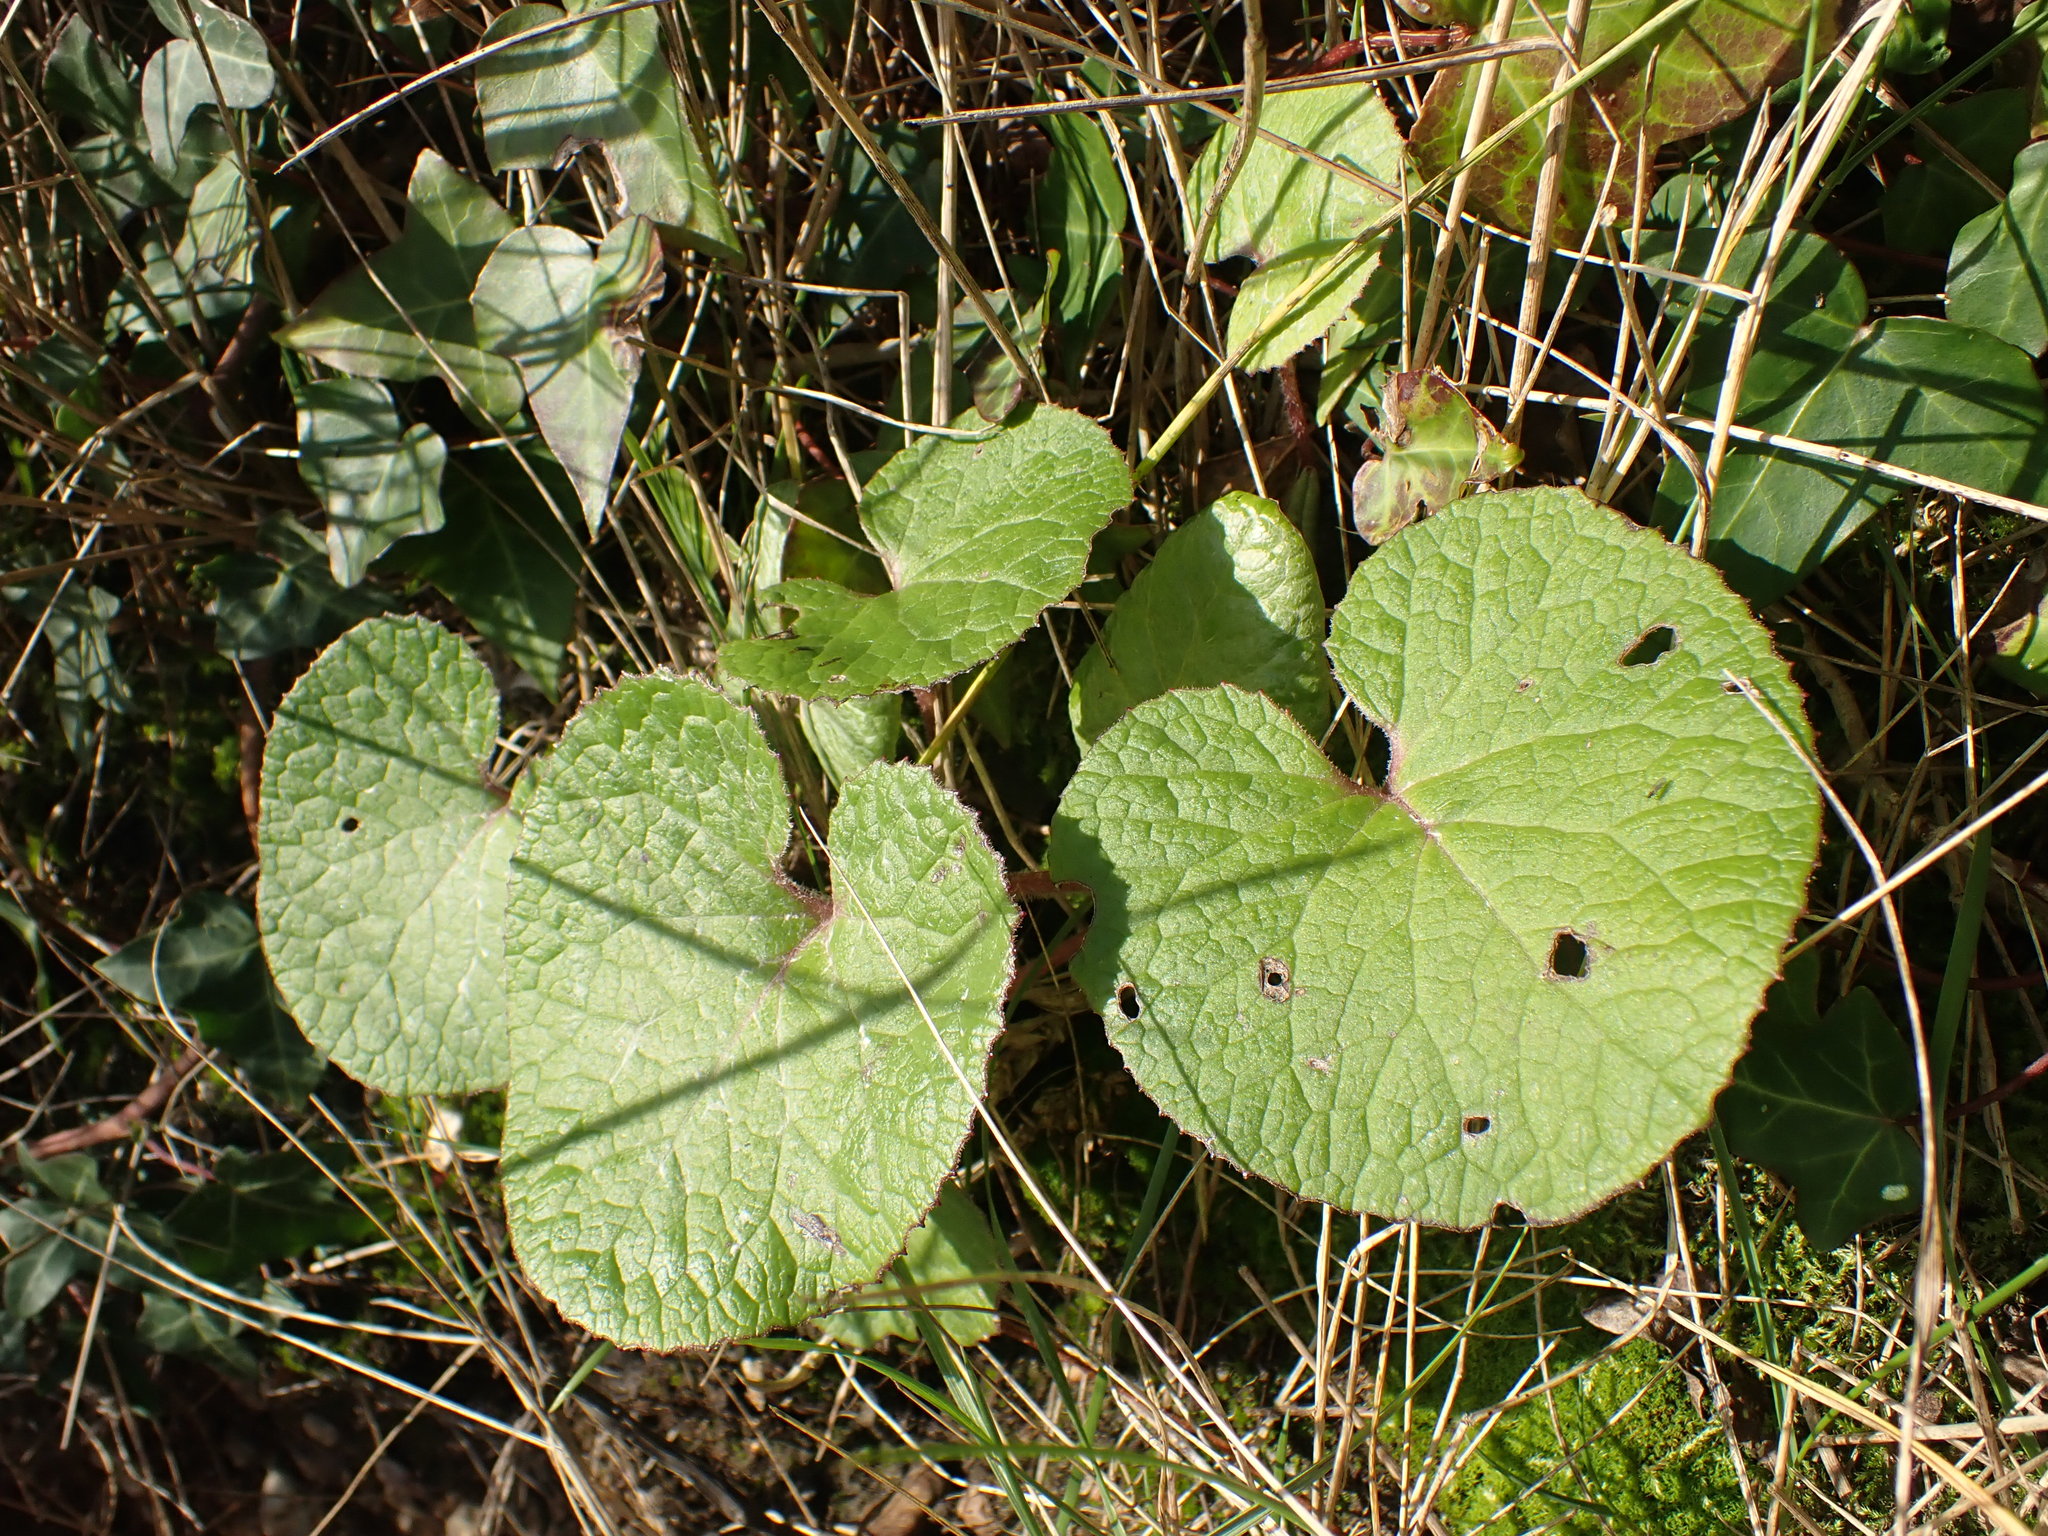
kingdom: Plantae
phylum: Tracheophyta
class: Magnoliopsida
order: Asterales
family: Asteraceae
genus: Petasites
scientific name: Petasites pyrenaicus
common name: Winter heliotrope
